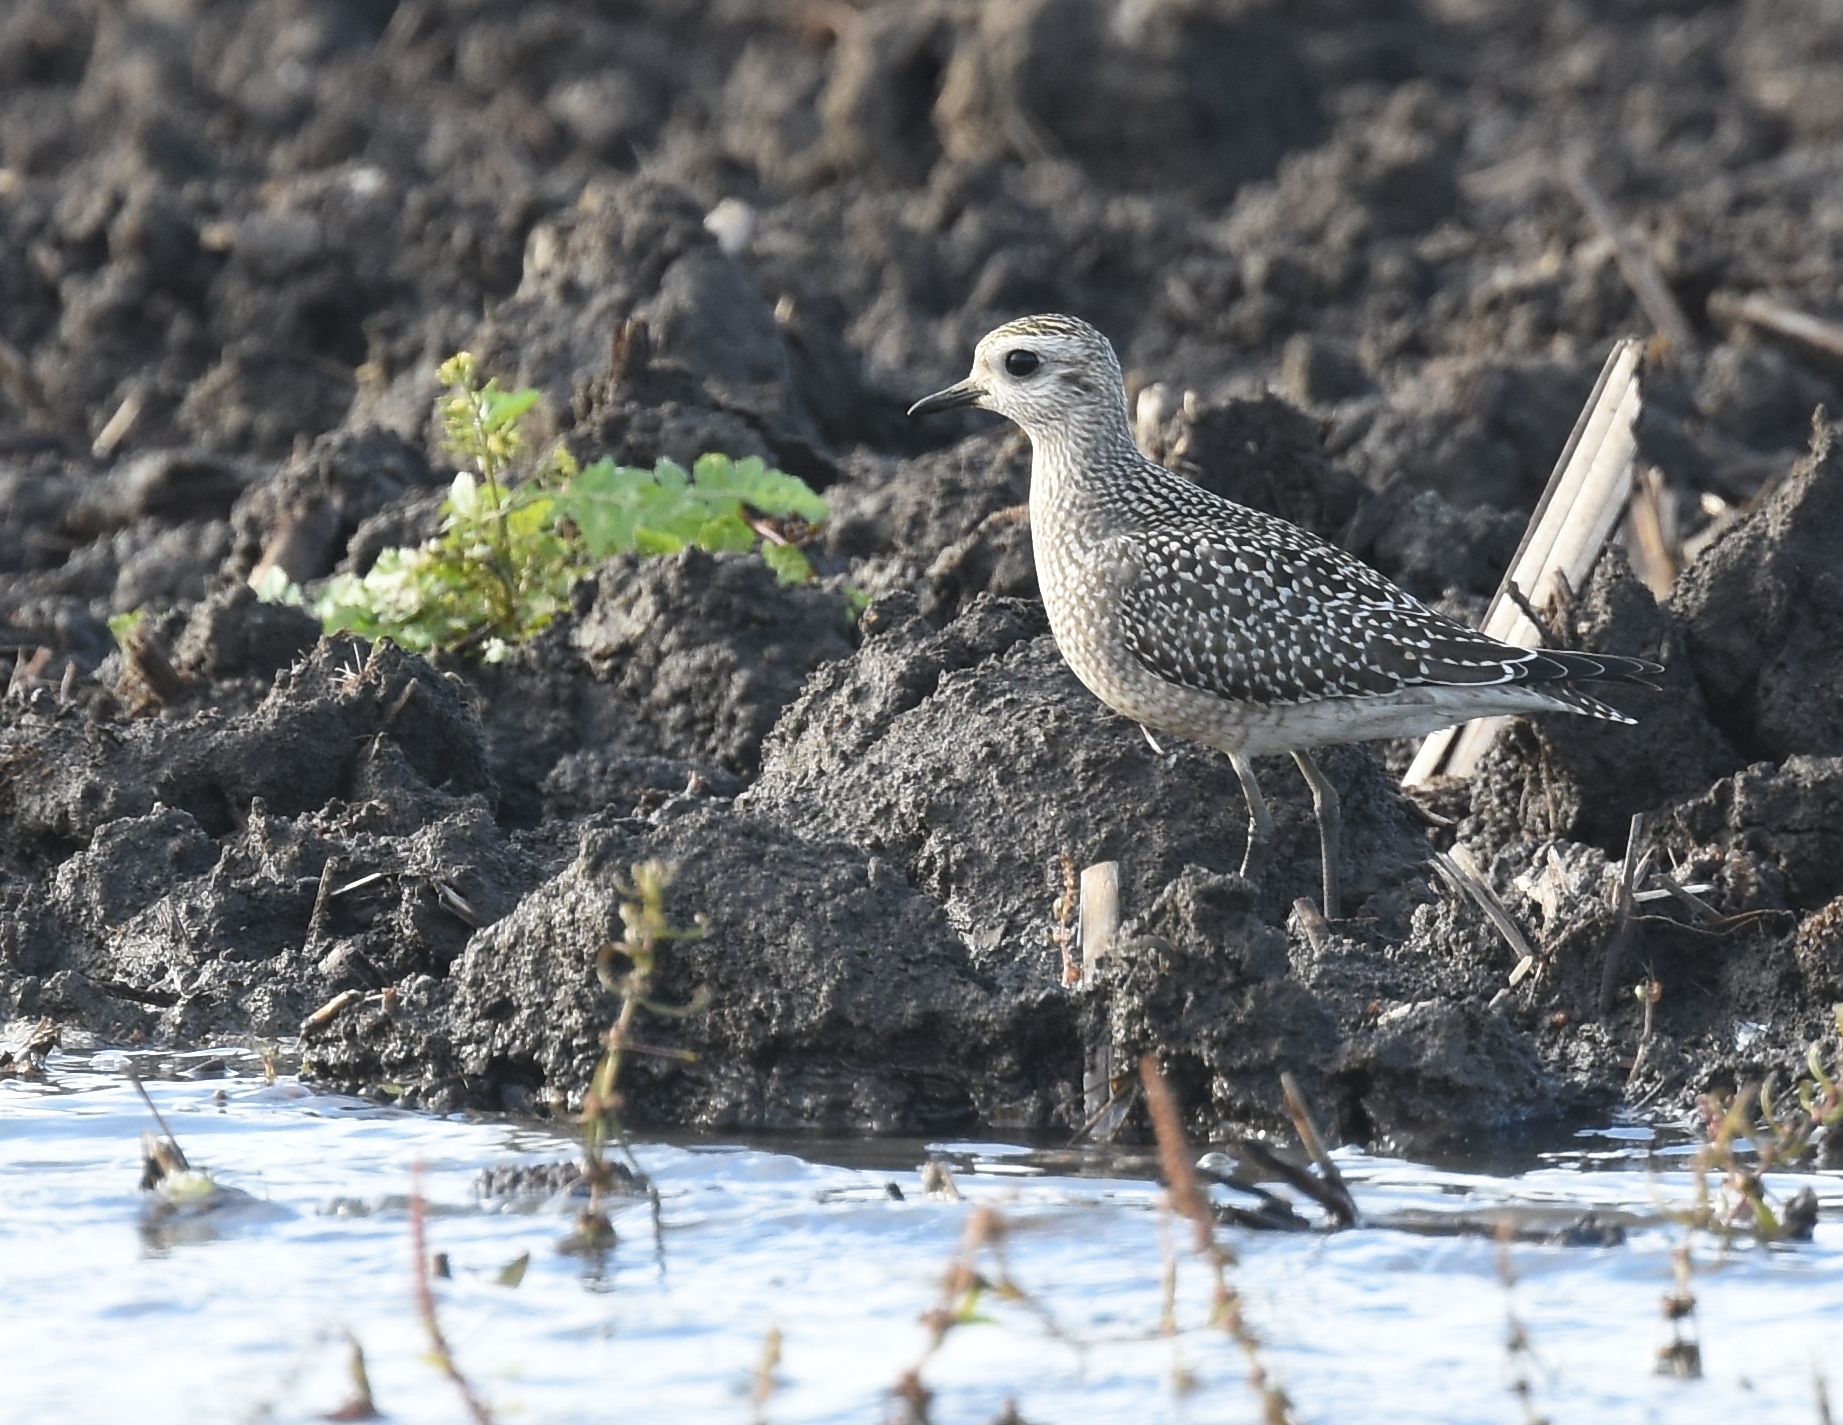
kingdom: Animalia
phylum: Chordata
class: Aves
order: Charadriiformes
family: Charadriidae
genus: Pluvialis
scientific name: Pluvialis dominica
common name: American golden plover
